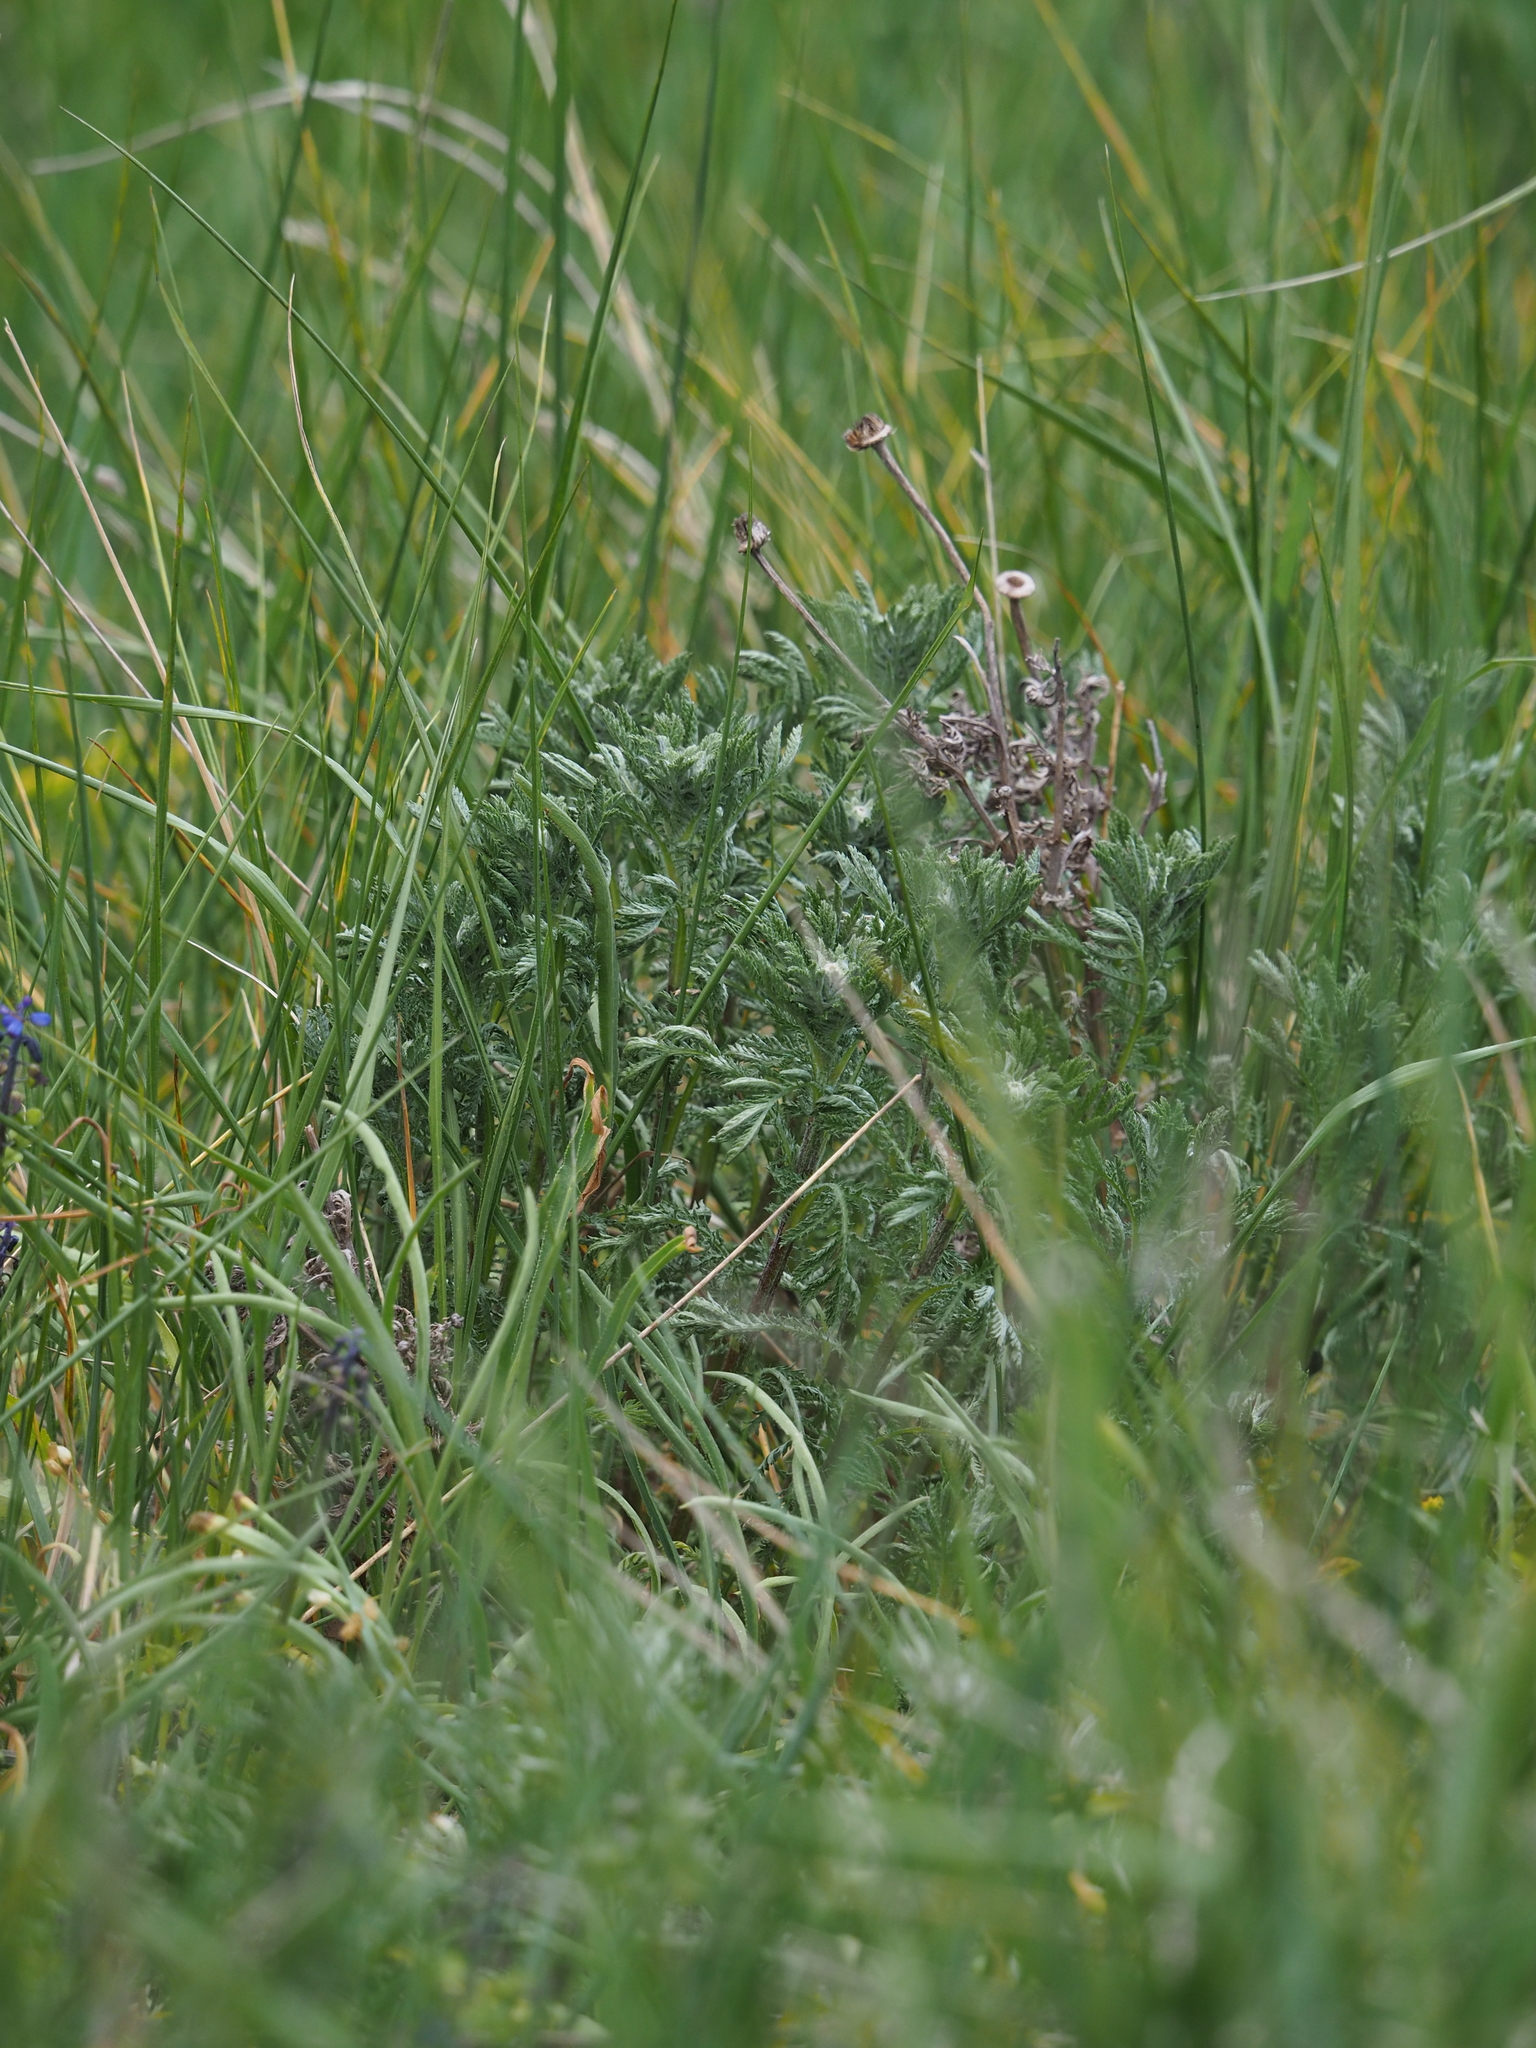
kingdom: Plantae
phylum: Tracheophyta
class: Magnoliopsida
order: Asterales
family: Asteraceae
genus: Cota
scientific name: Cota tinctoria
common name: Golden chamomile
